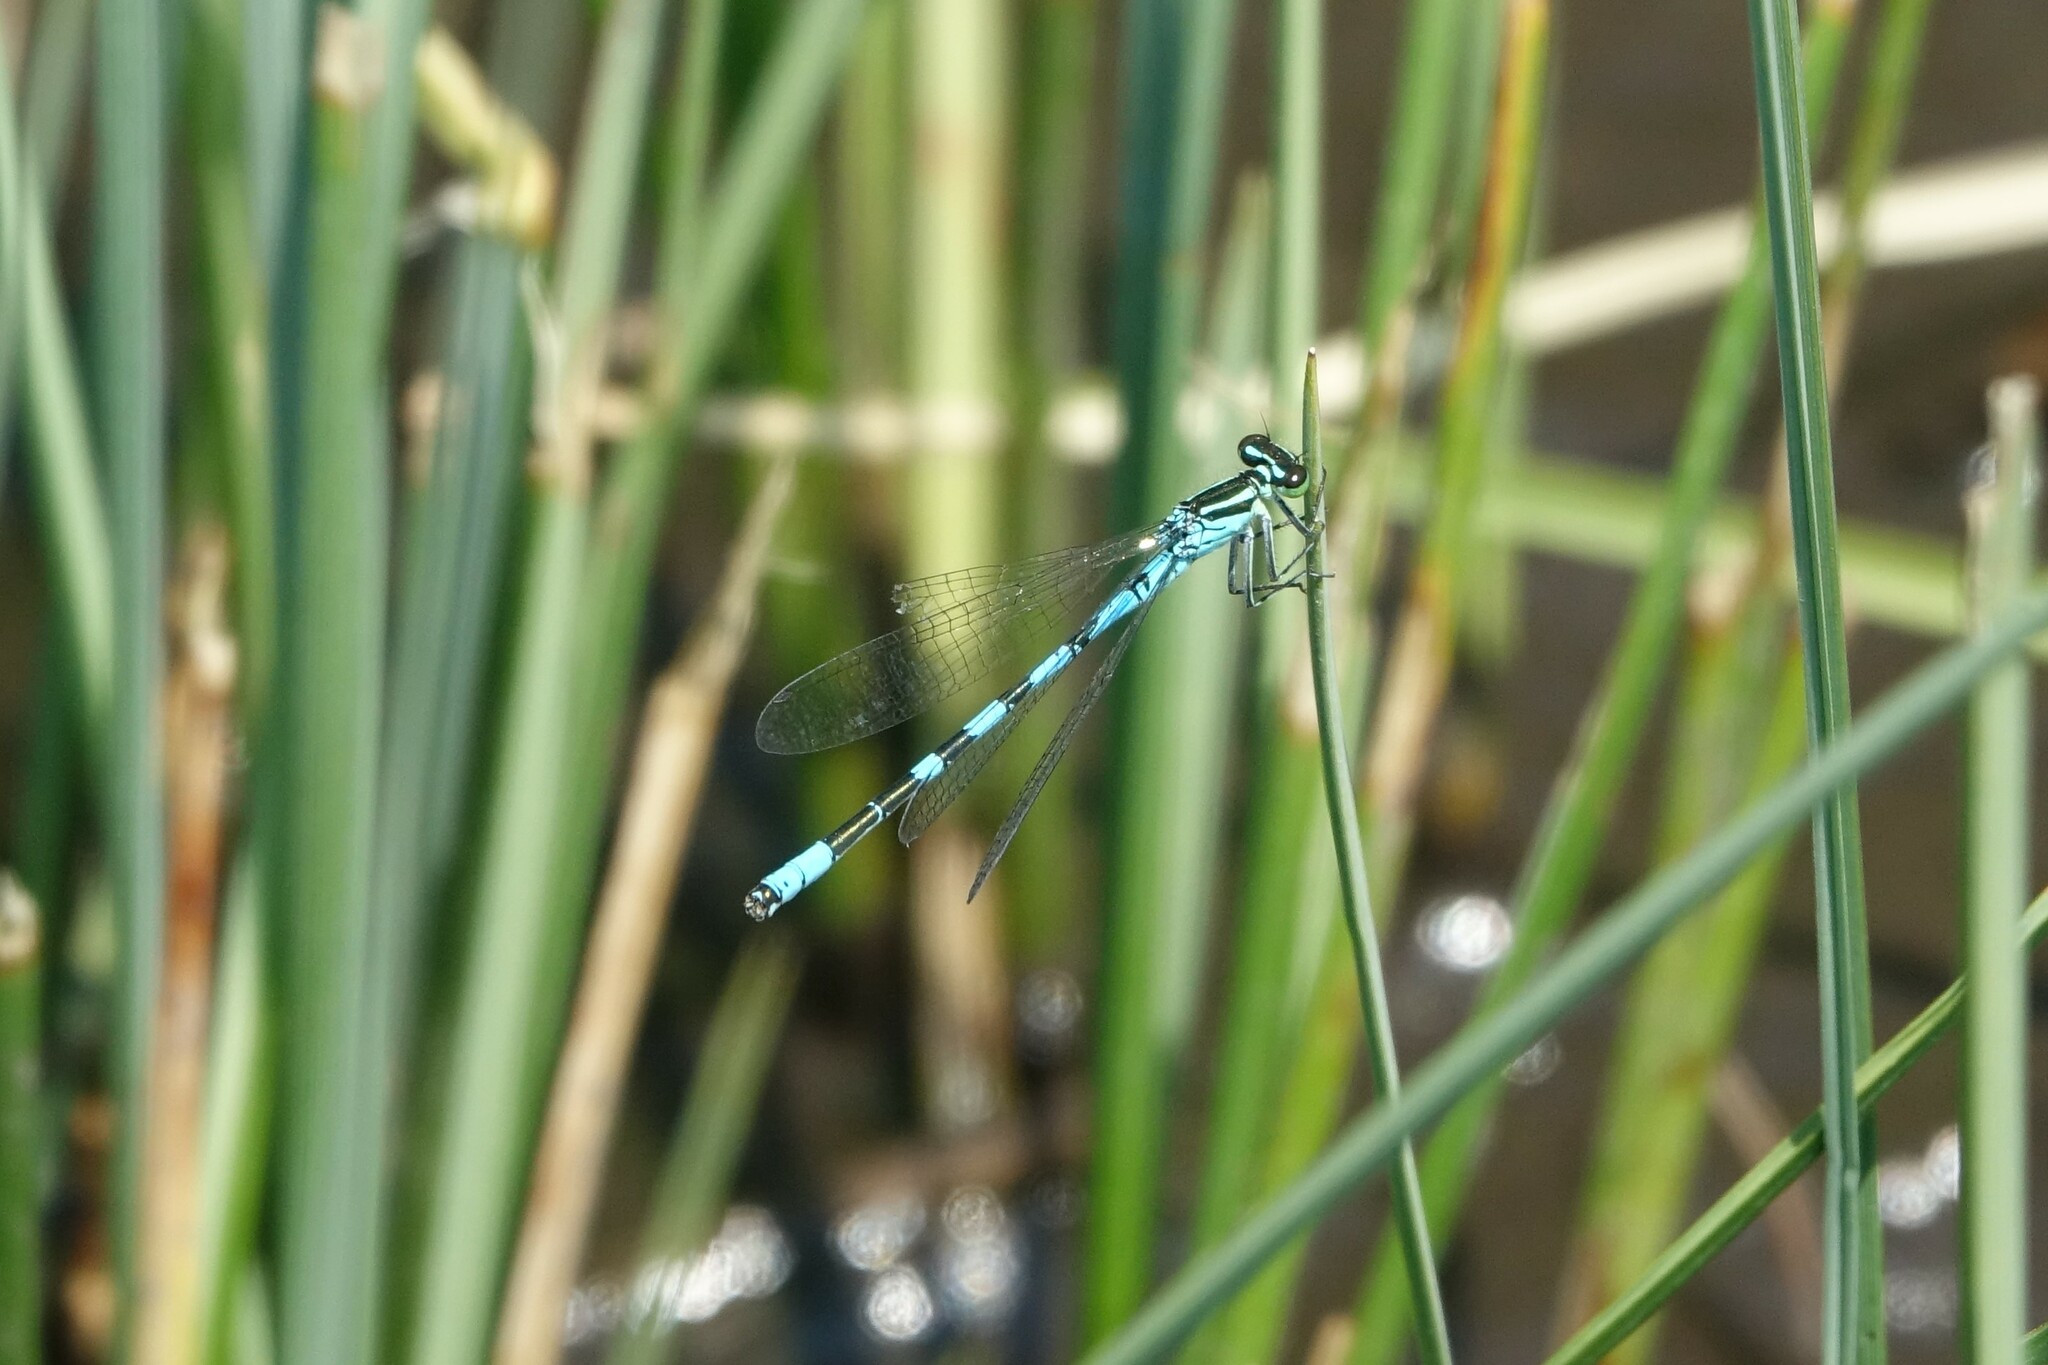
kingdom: Animalia
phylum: Arthropoda
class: Insecta
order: Odonata
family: Coenagrionidae
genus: Coenagrion
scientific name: Coenagrion hastulatum
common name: Spearhead bluet
